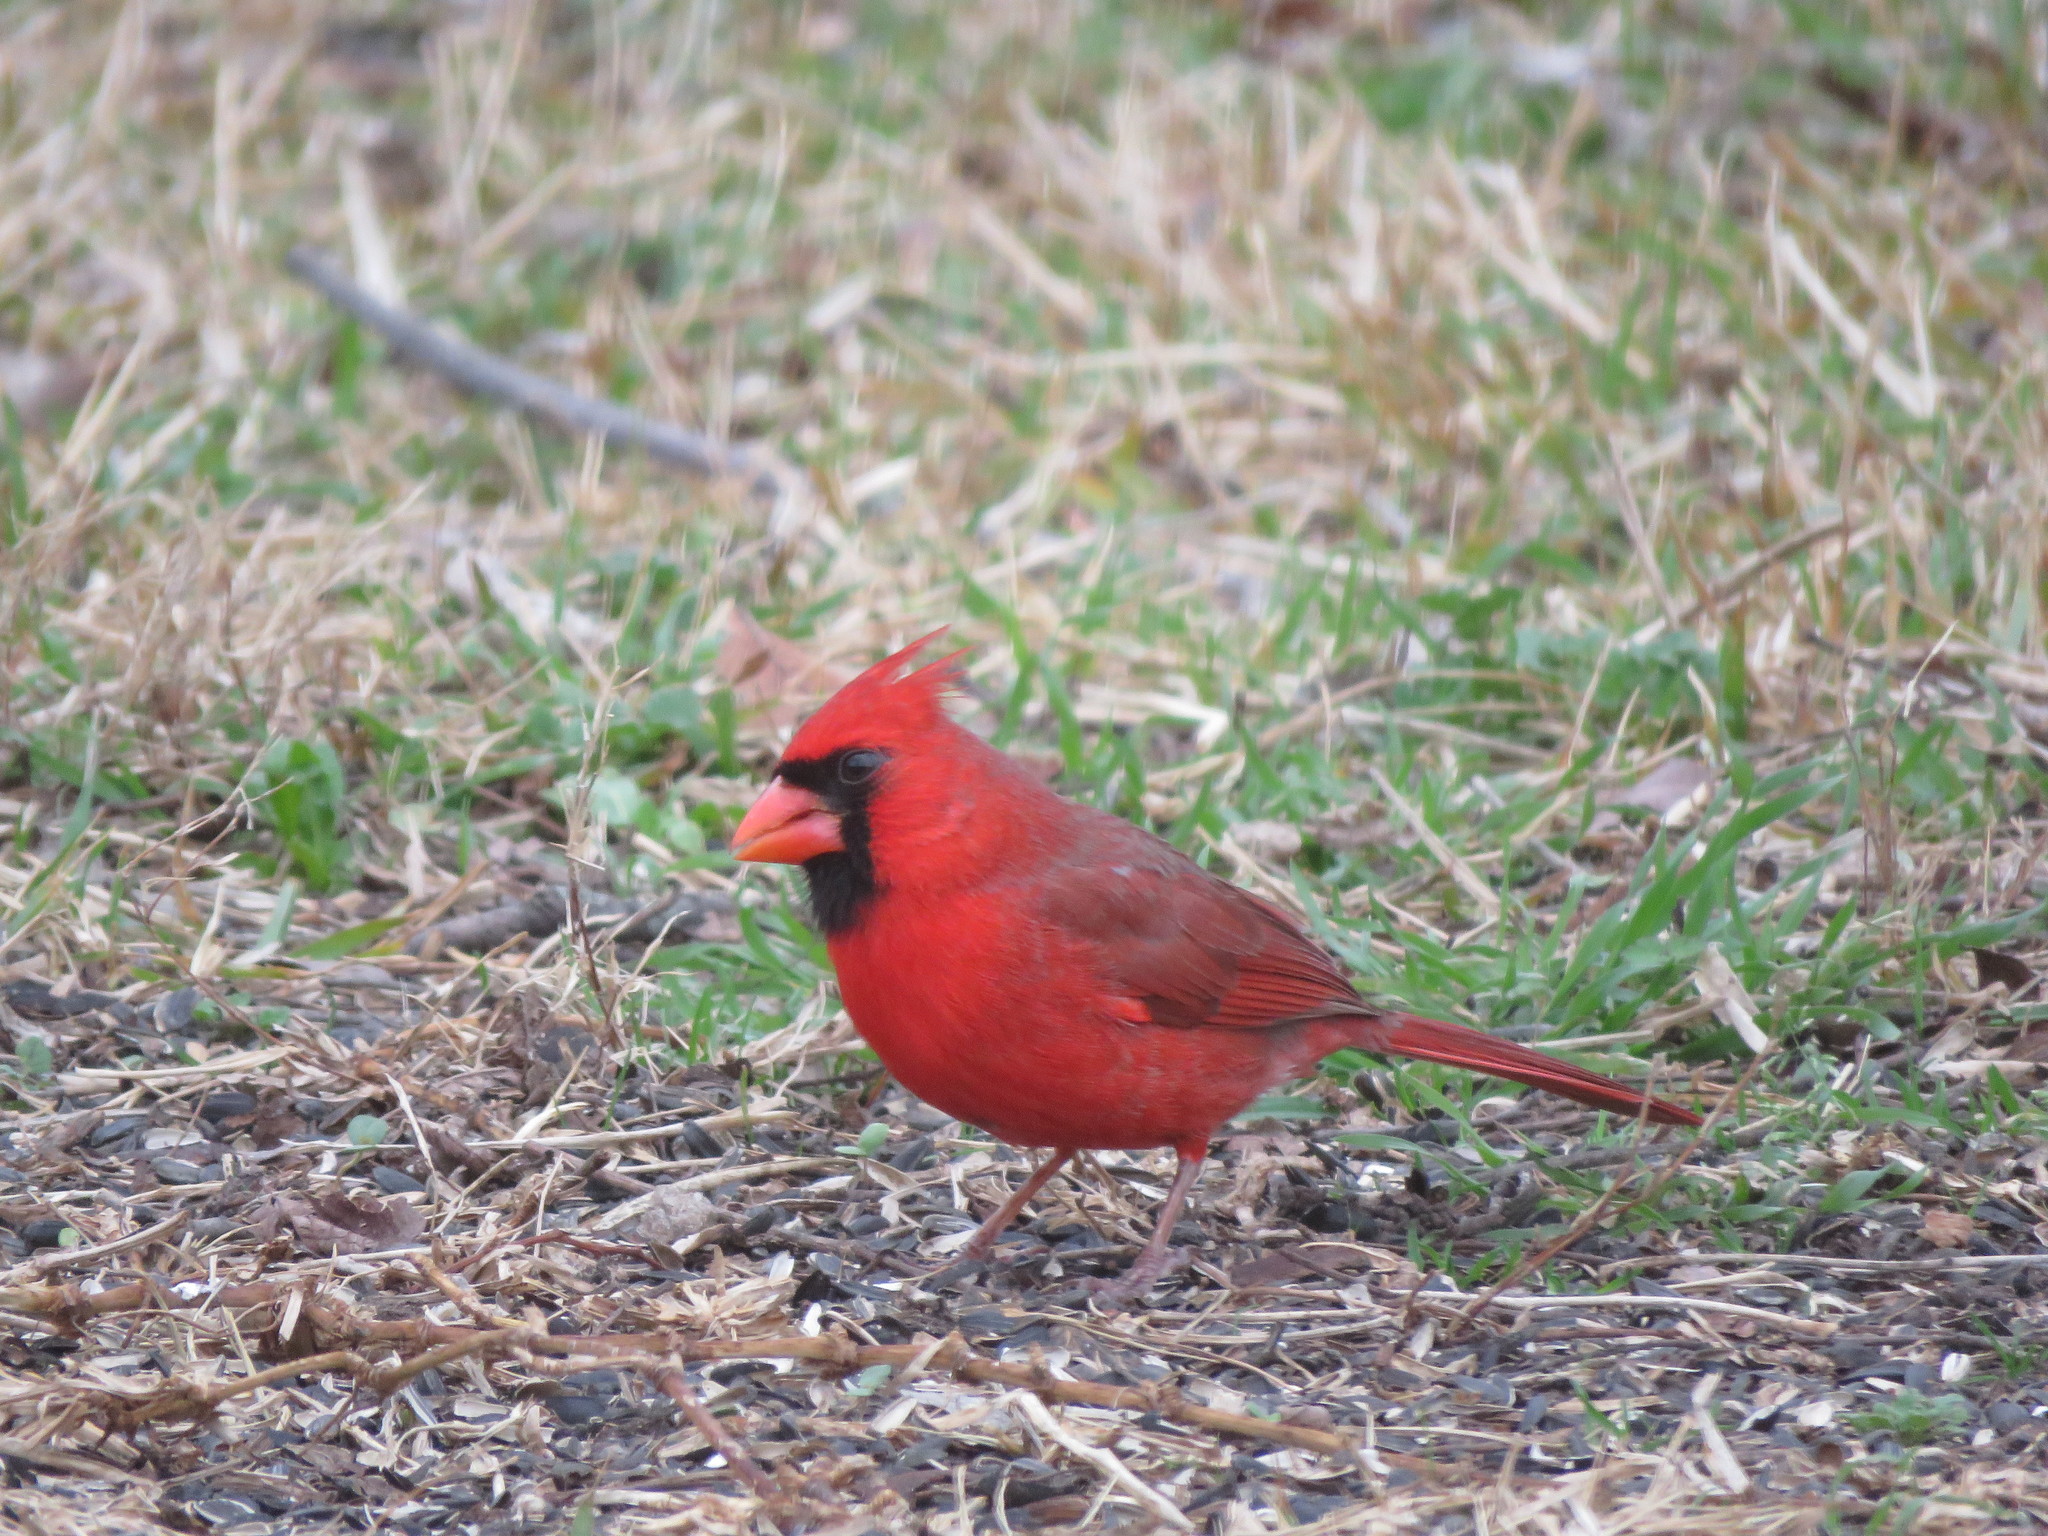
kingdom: Animalia
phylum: Chordata
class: Aves
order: Passeriformes
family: Cardinalidae
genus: Cardinalis
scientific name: Cardinalis cardinalis
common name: Northern cardinal
